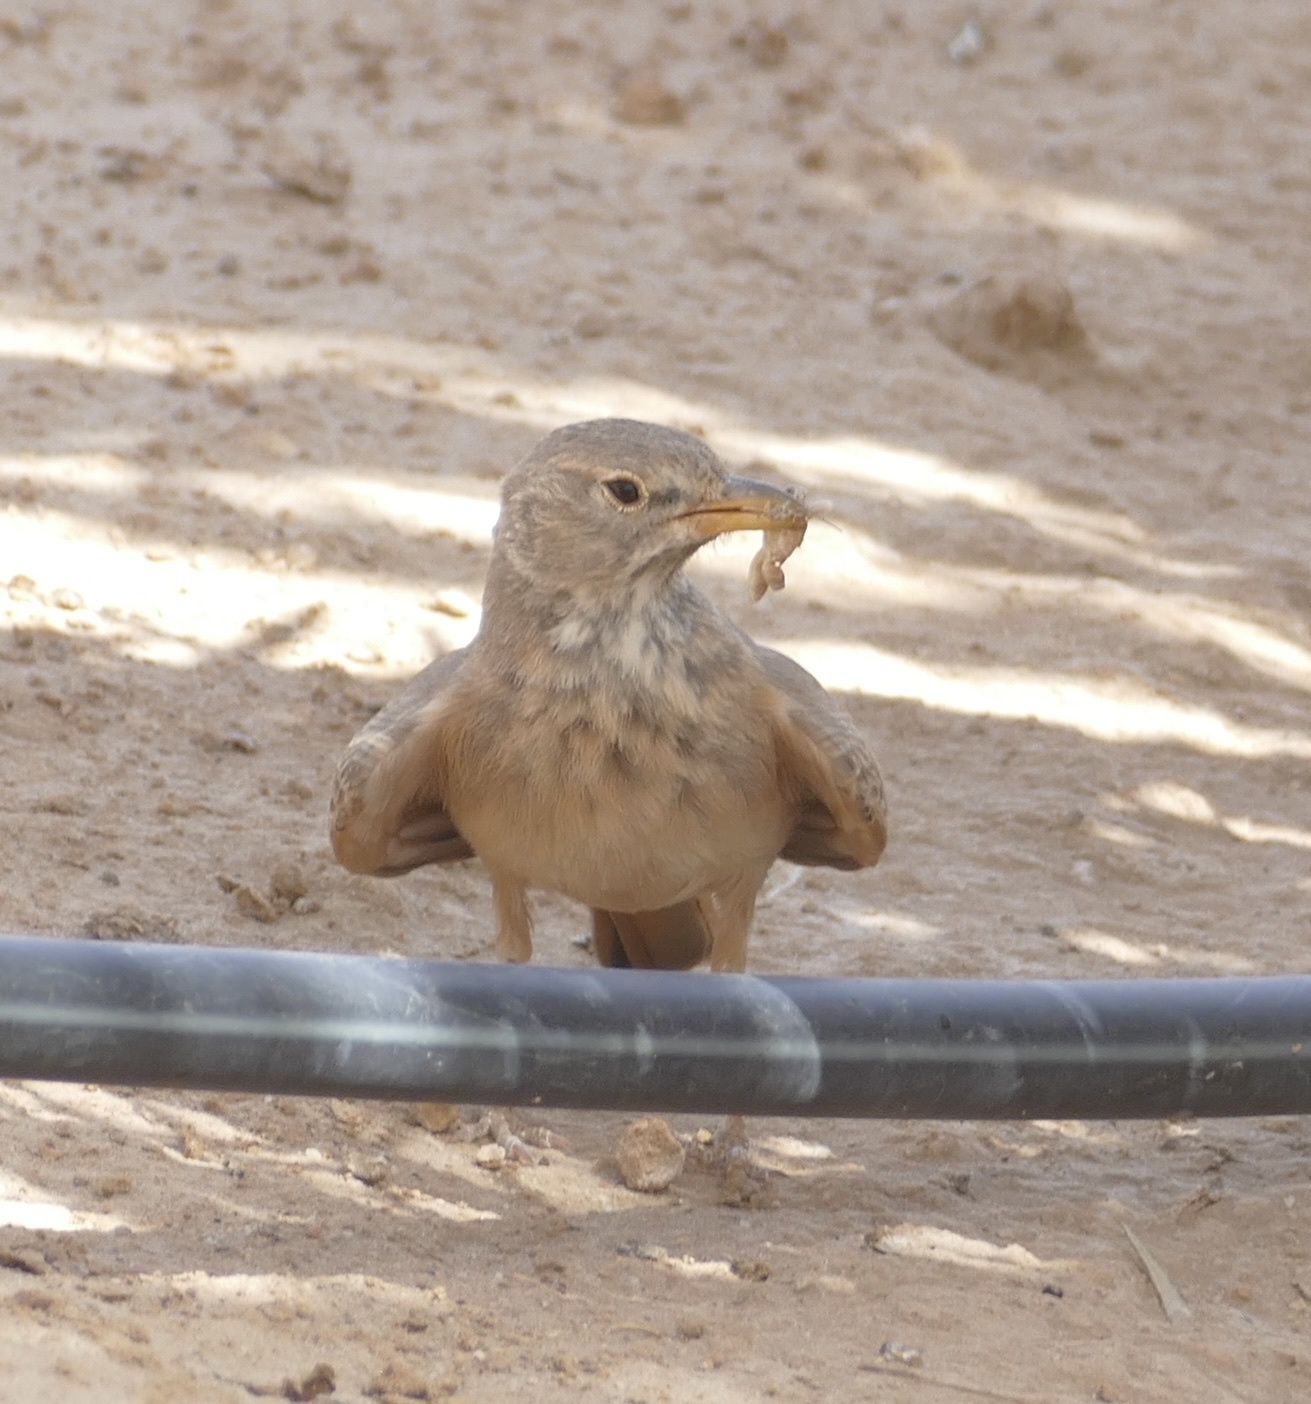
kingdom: Animalia
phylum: Chordata
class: Aves
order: Passeriformes
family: Alaudidae
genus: Ammomanes
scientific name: Ammomanes deserti
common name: Desert lark
